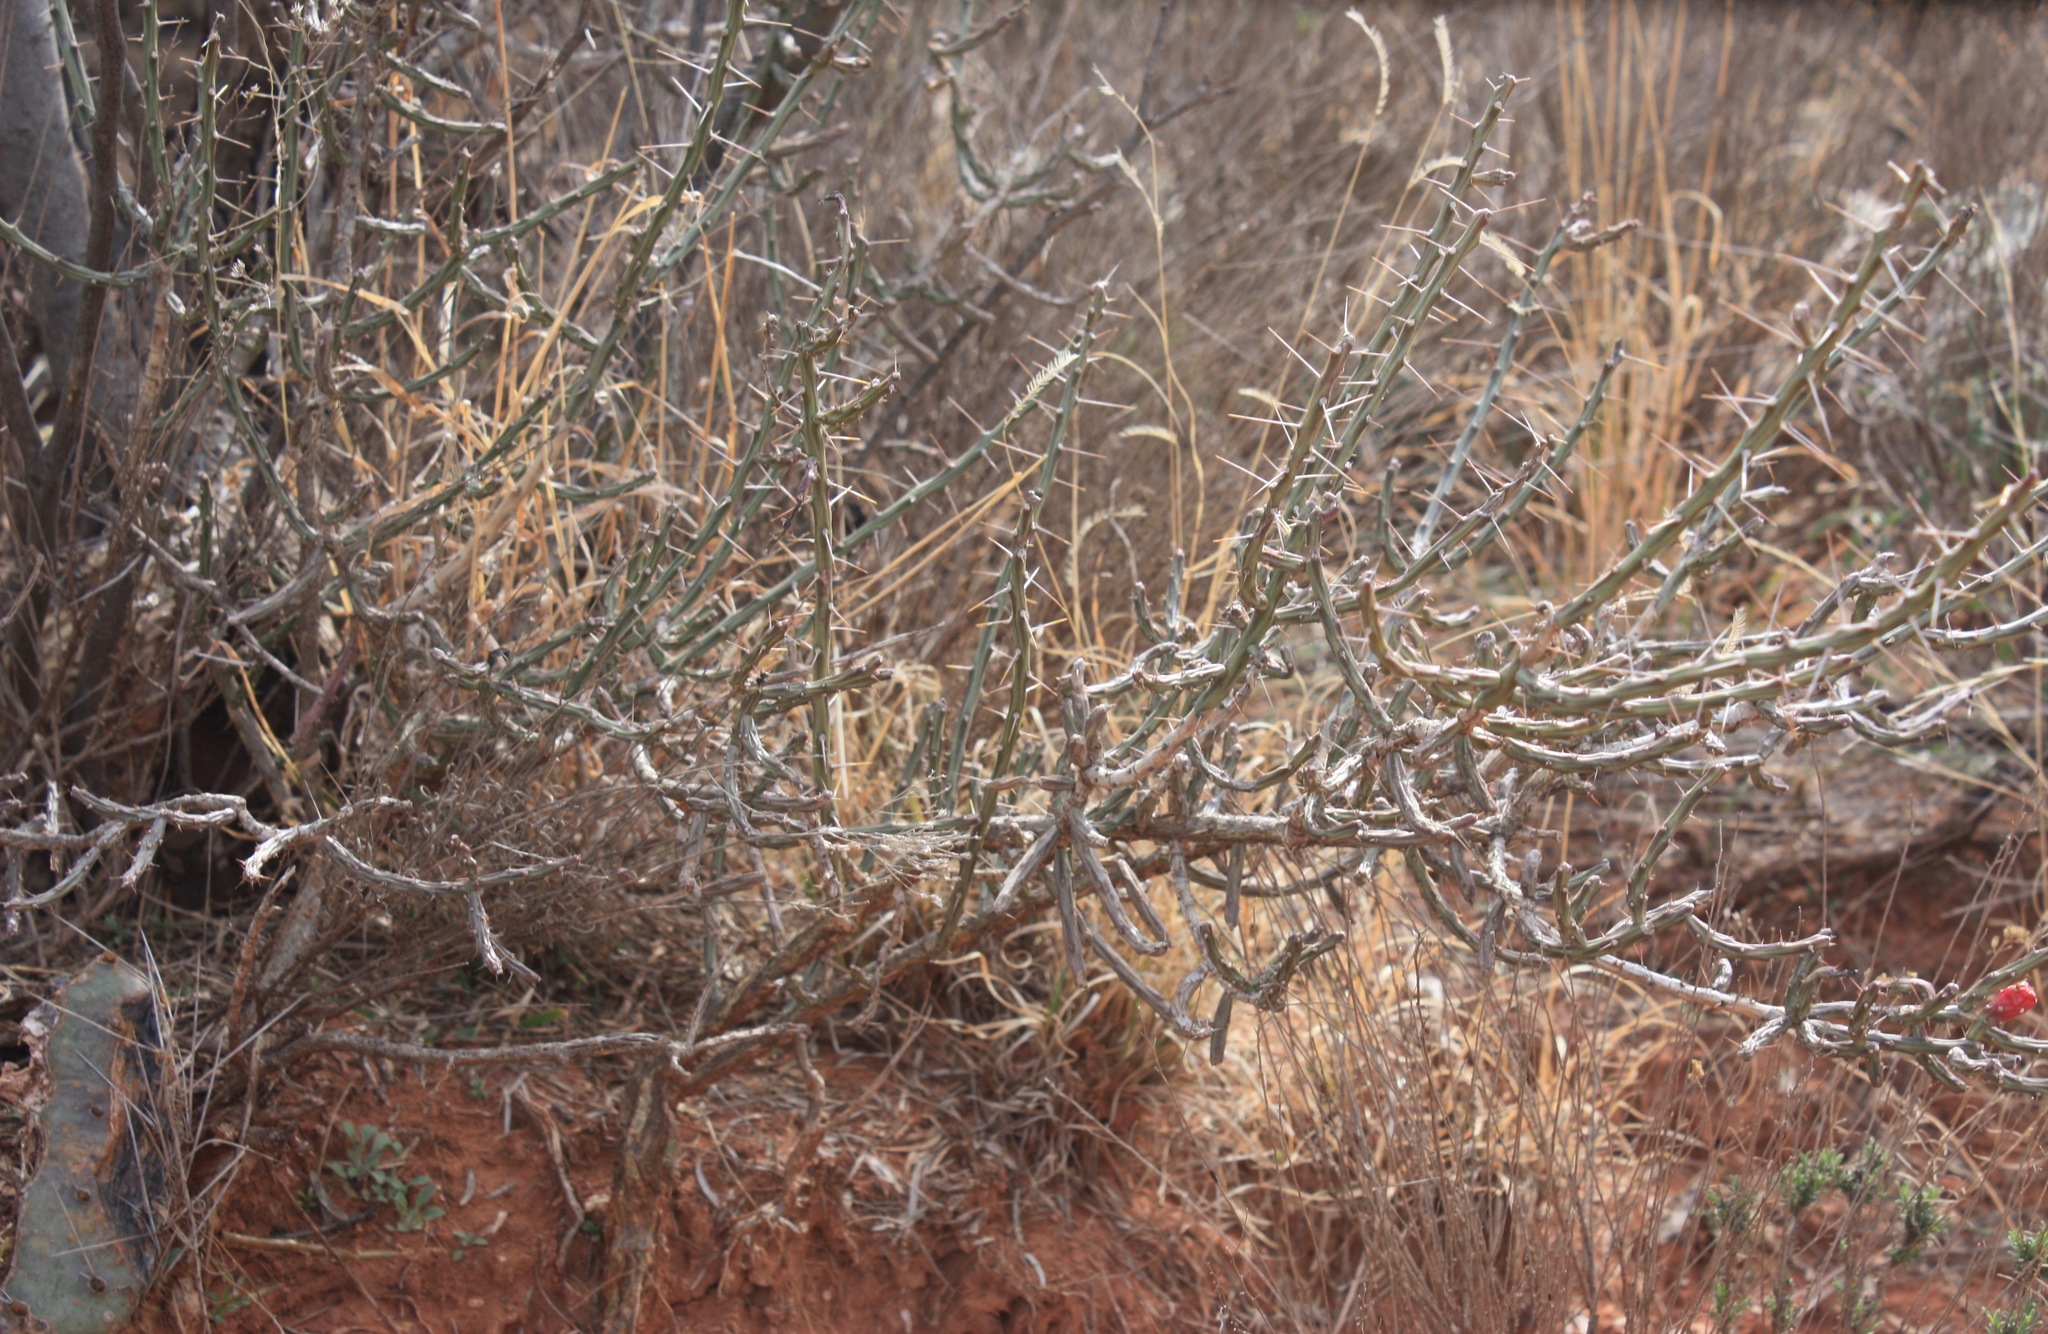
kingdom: Plantae
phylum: Tracheophyta
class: Magnoliopsida
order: Caryophyllales
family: Cactaceae
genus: Cylindropuntia
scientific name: Cylindropuntia leptocaulis
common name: Christmas cactus
